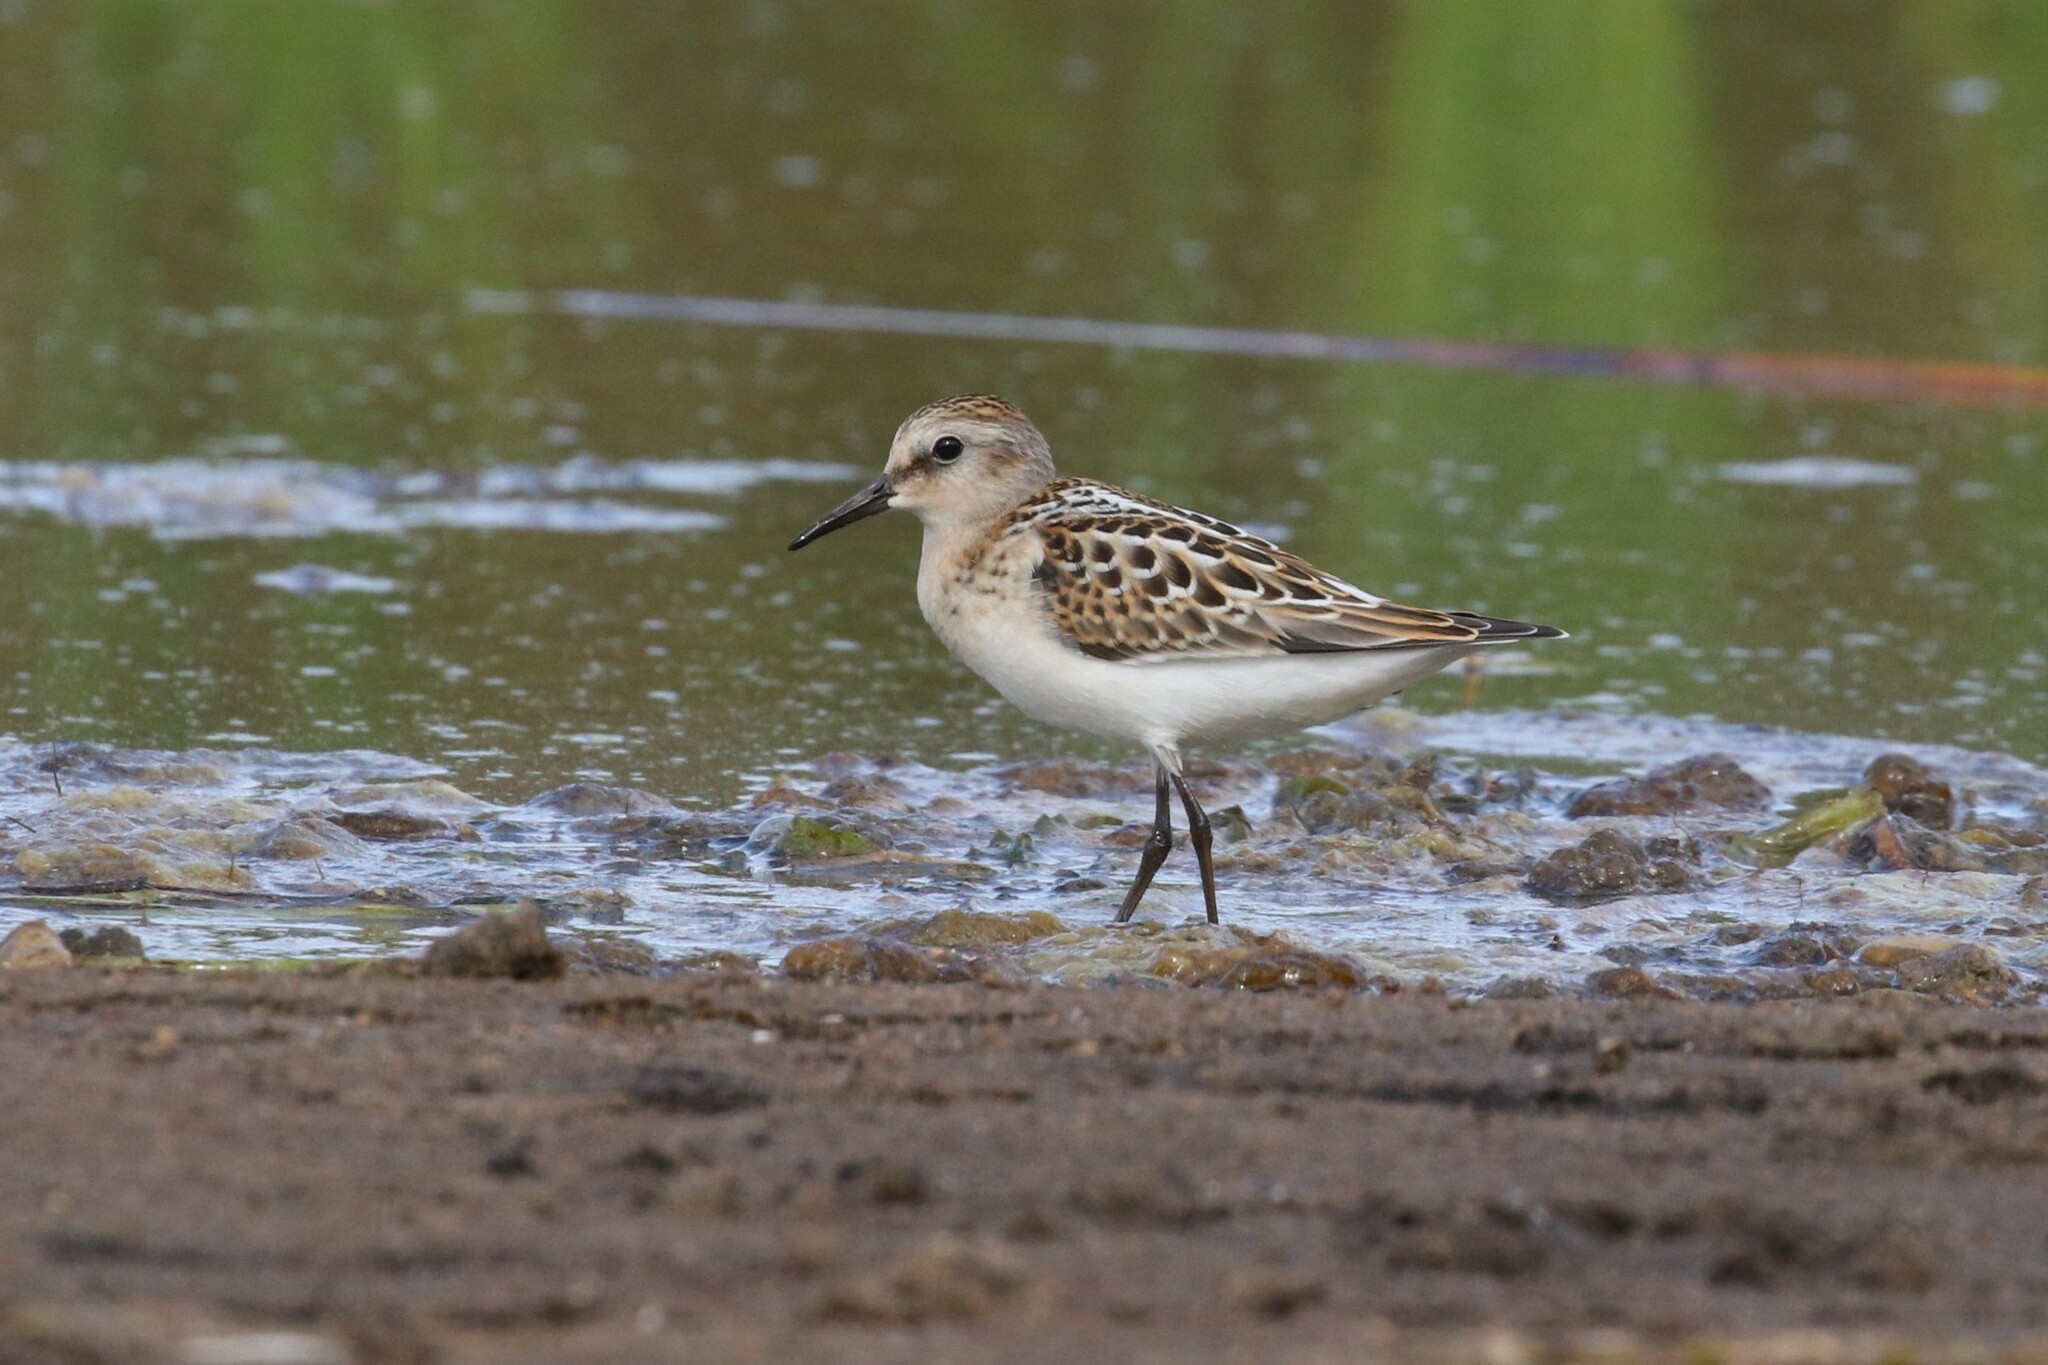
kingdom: Animalia
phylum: Chordata
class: Aves
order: Charadriiformes
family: Scolopacidae
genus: Calidris
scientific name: Calidris minuta
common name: Little stint
